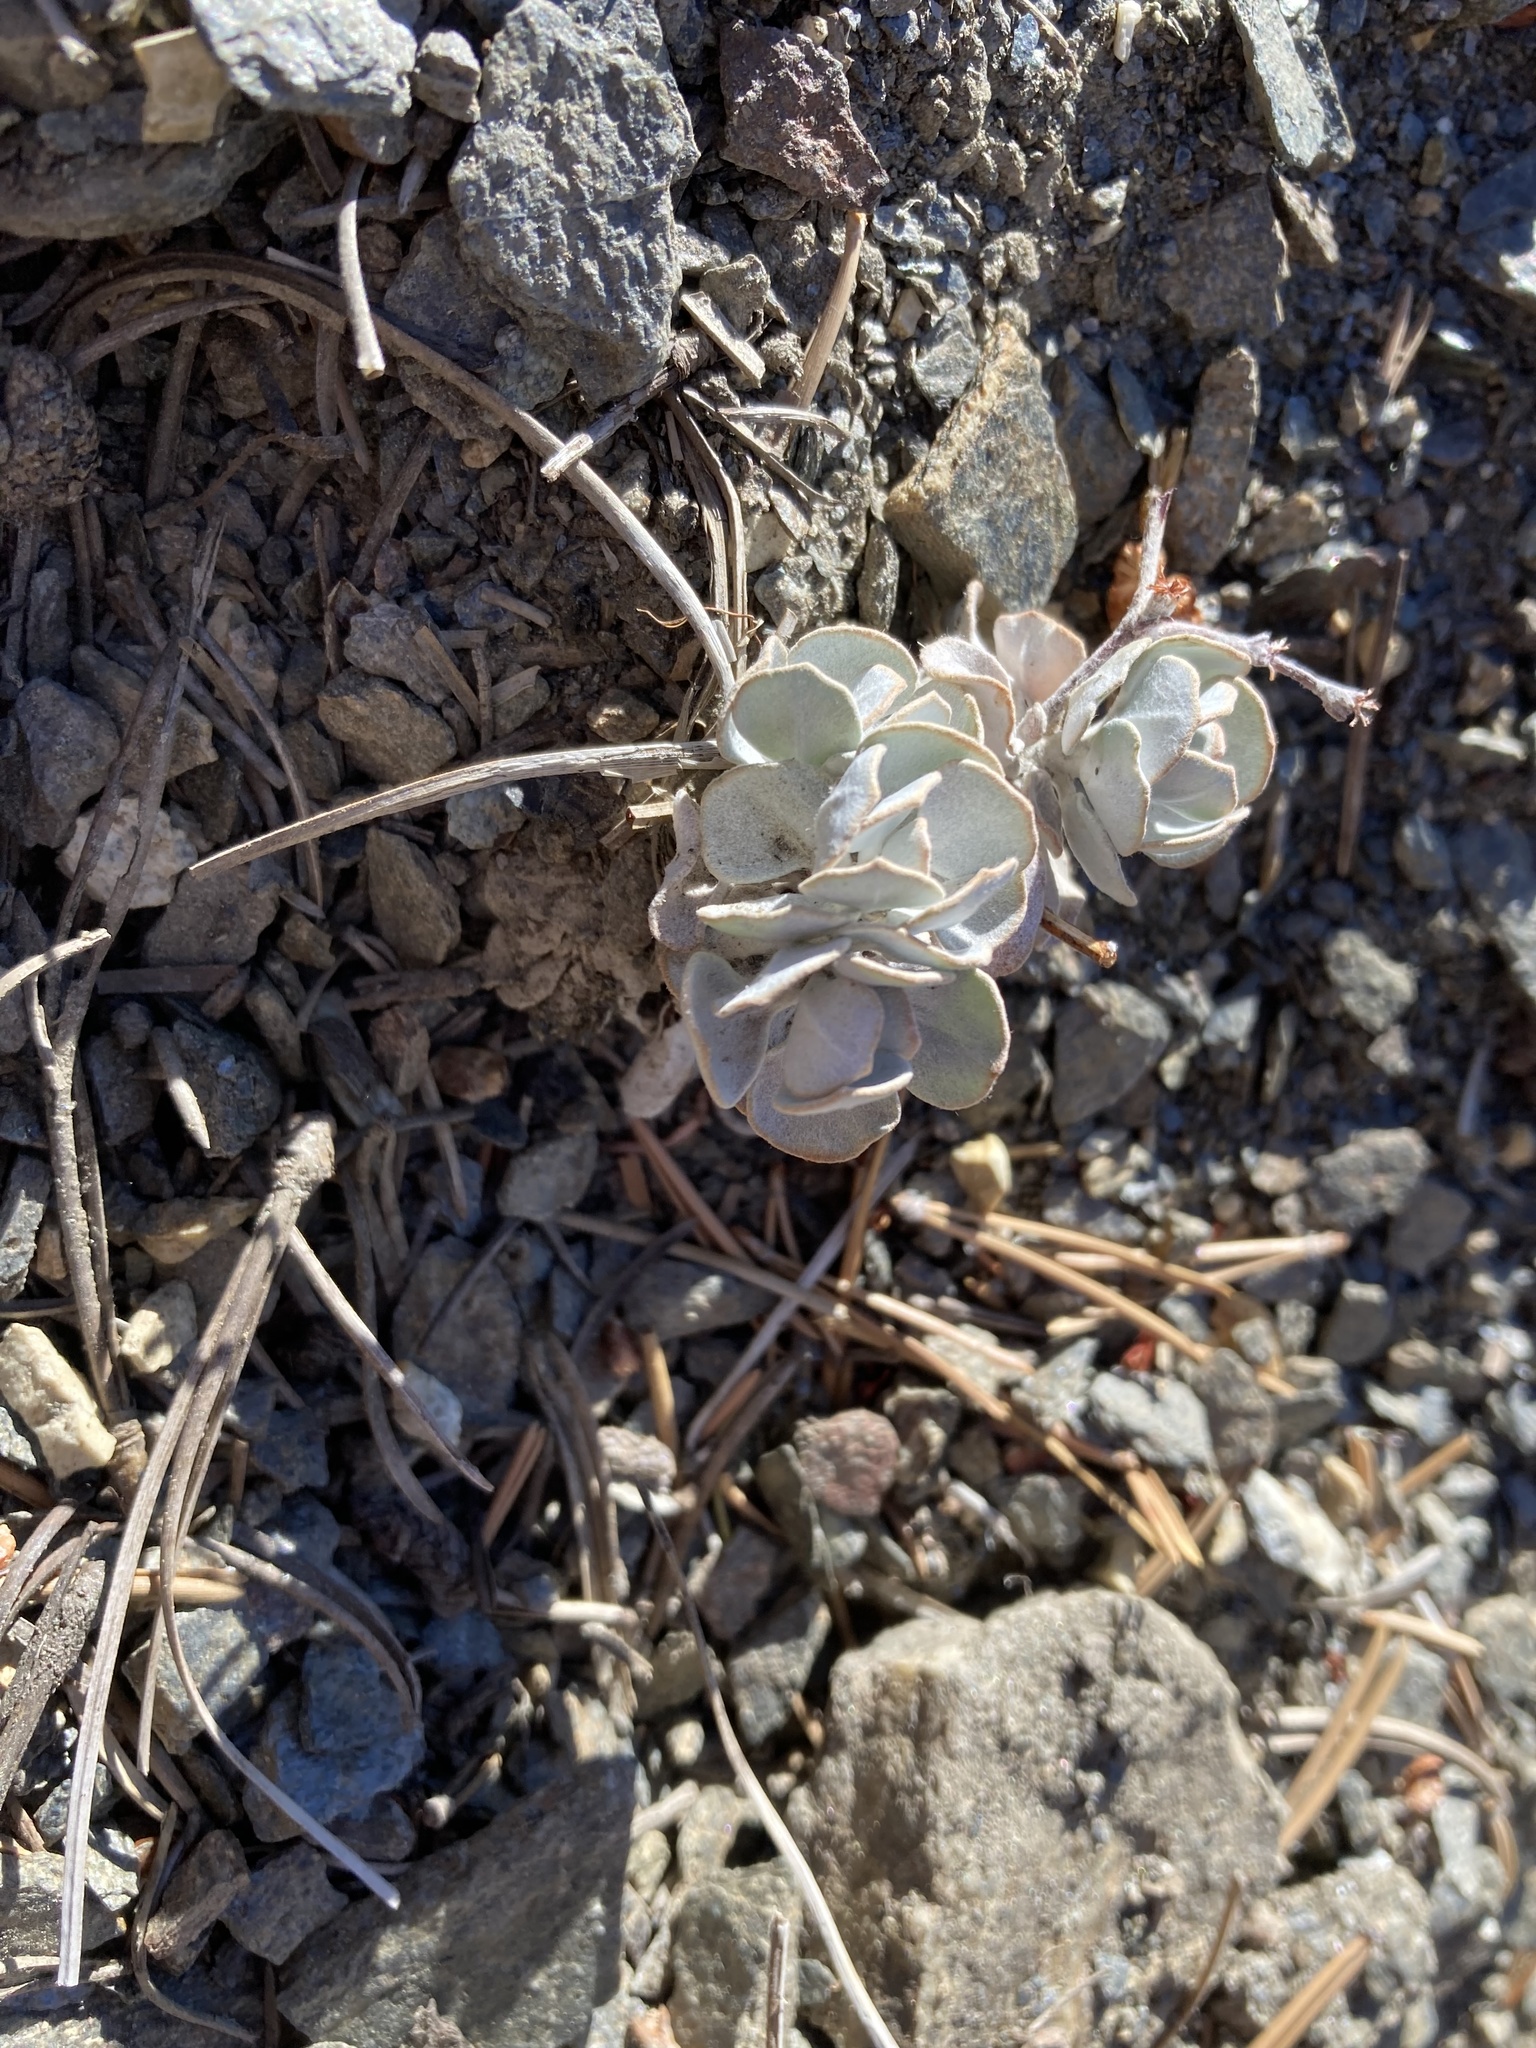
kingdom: Plantae
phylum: Tracheophyta
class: Magnoliopsida
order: Caryophyllales
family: Polygonaceae
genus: Eriogonum
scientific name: Eriogonum saxatile
